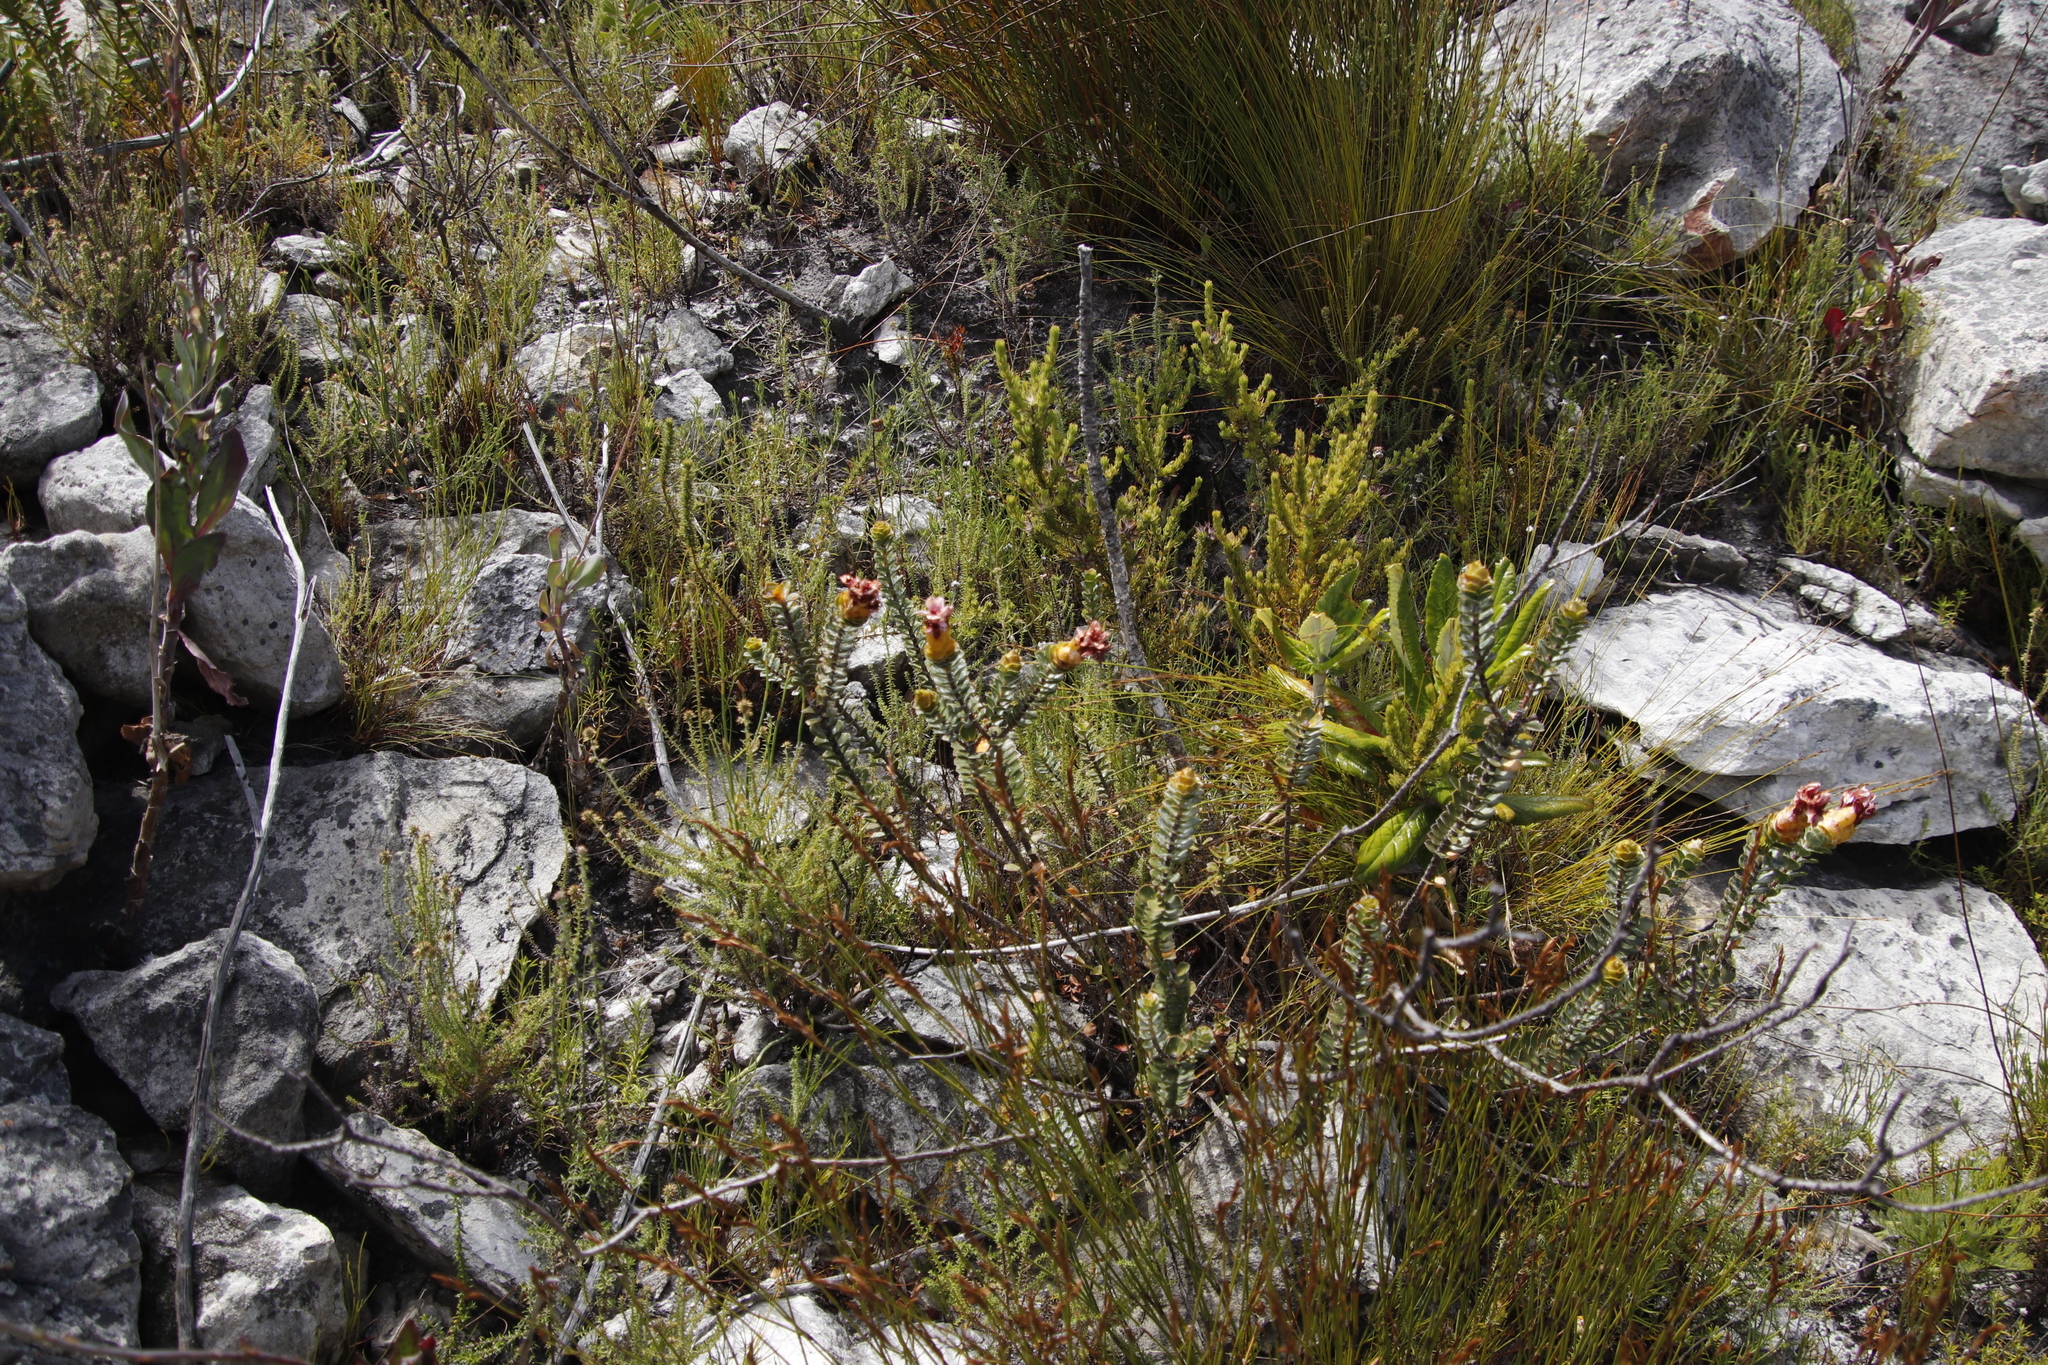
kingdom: Plantae
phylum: Tracheophyta
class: Magnoliopsida
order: Myrtales
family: Penaeaceae
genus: Saltera
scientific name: Saltera sarcocolla
